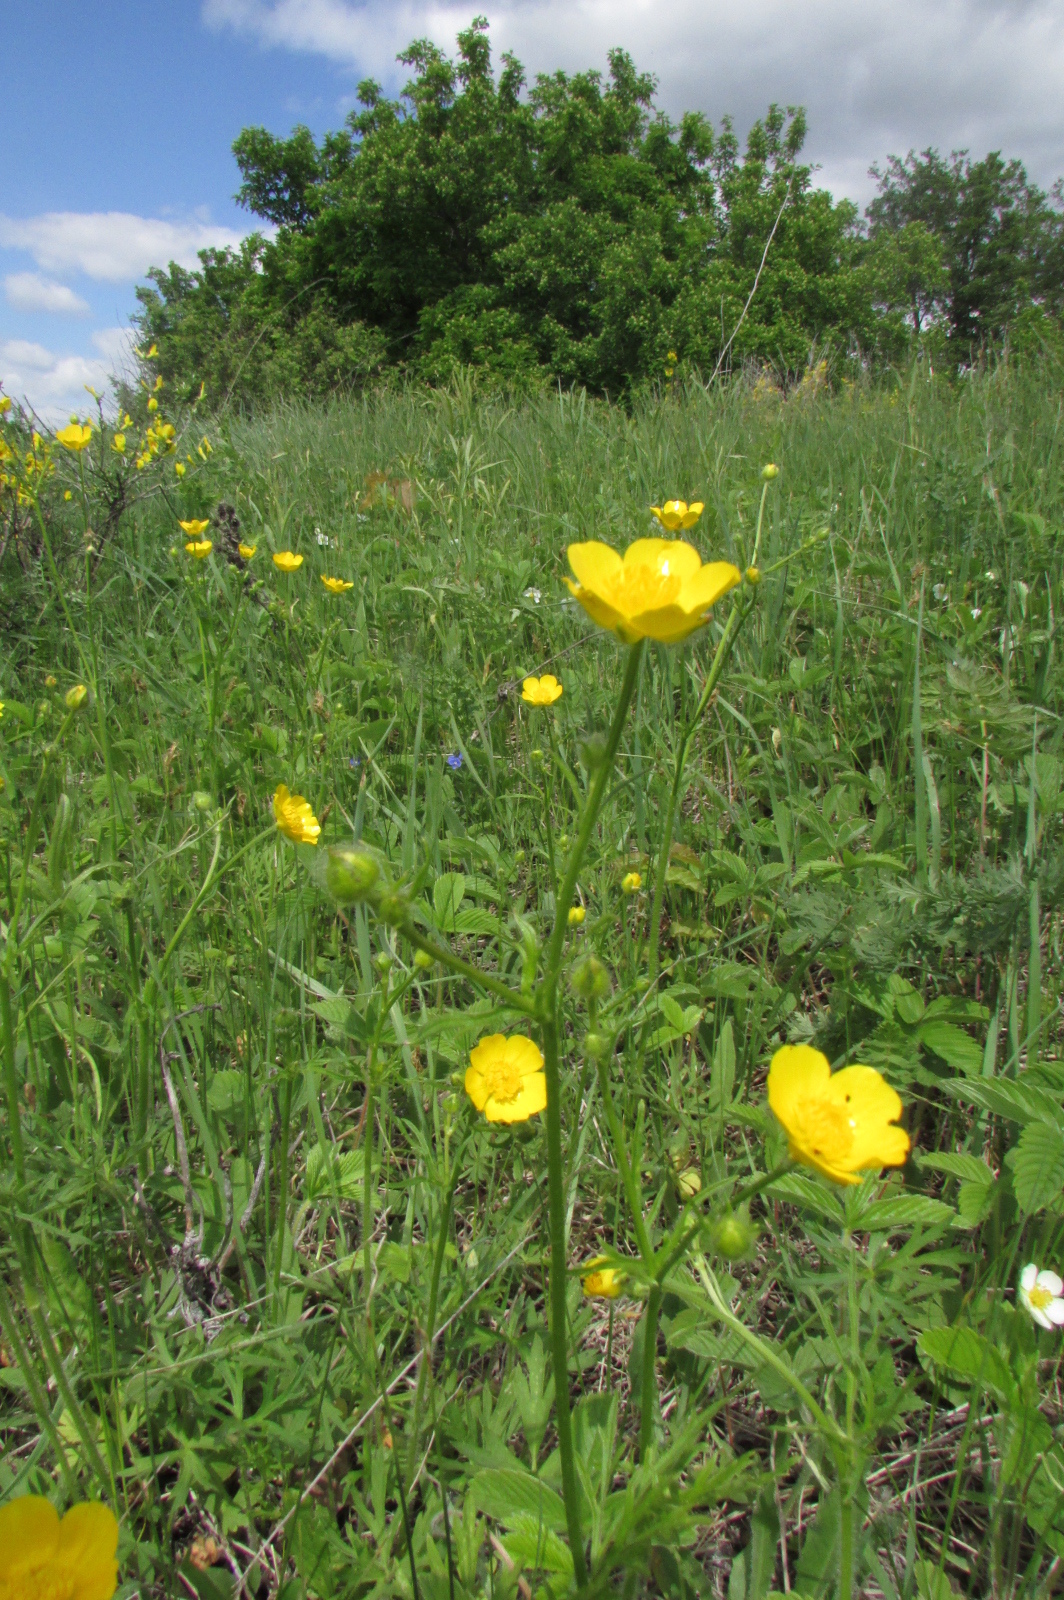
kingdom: Plantae
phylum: Tracheophyta
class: Magnoliopsida
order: Ranunculales
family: Ranunculaceae
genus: Ranunculus
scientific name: Ranunculus polyanthemos
